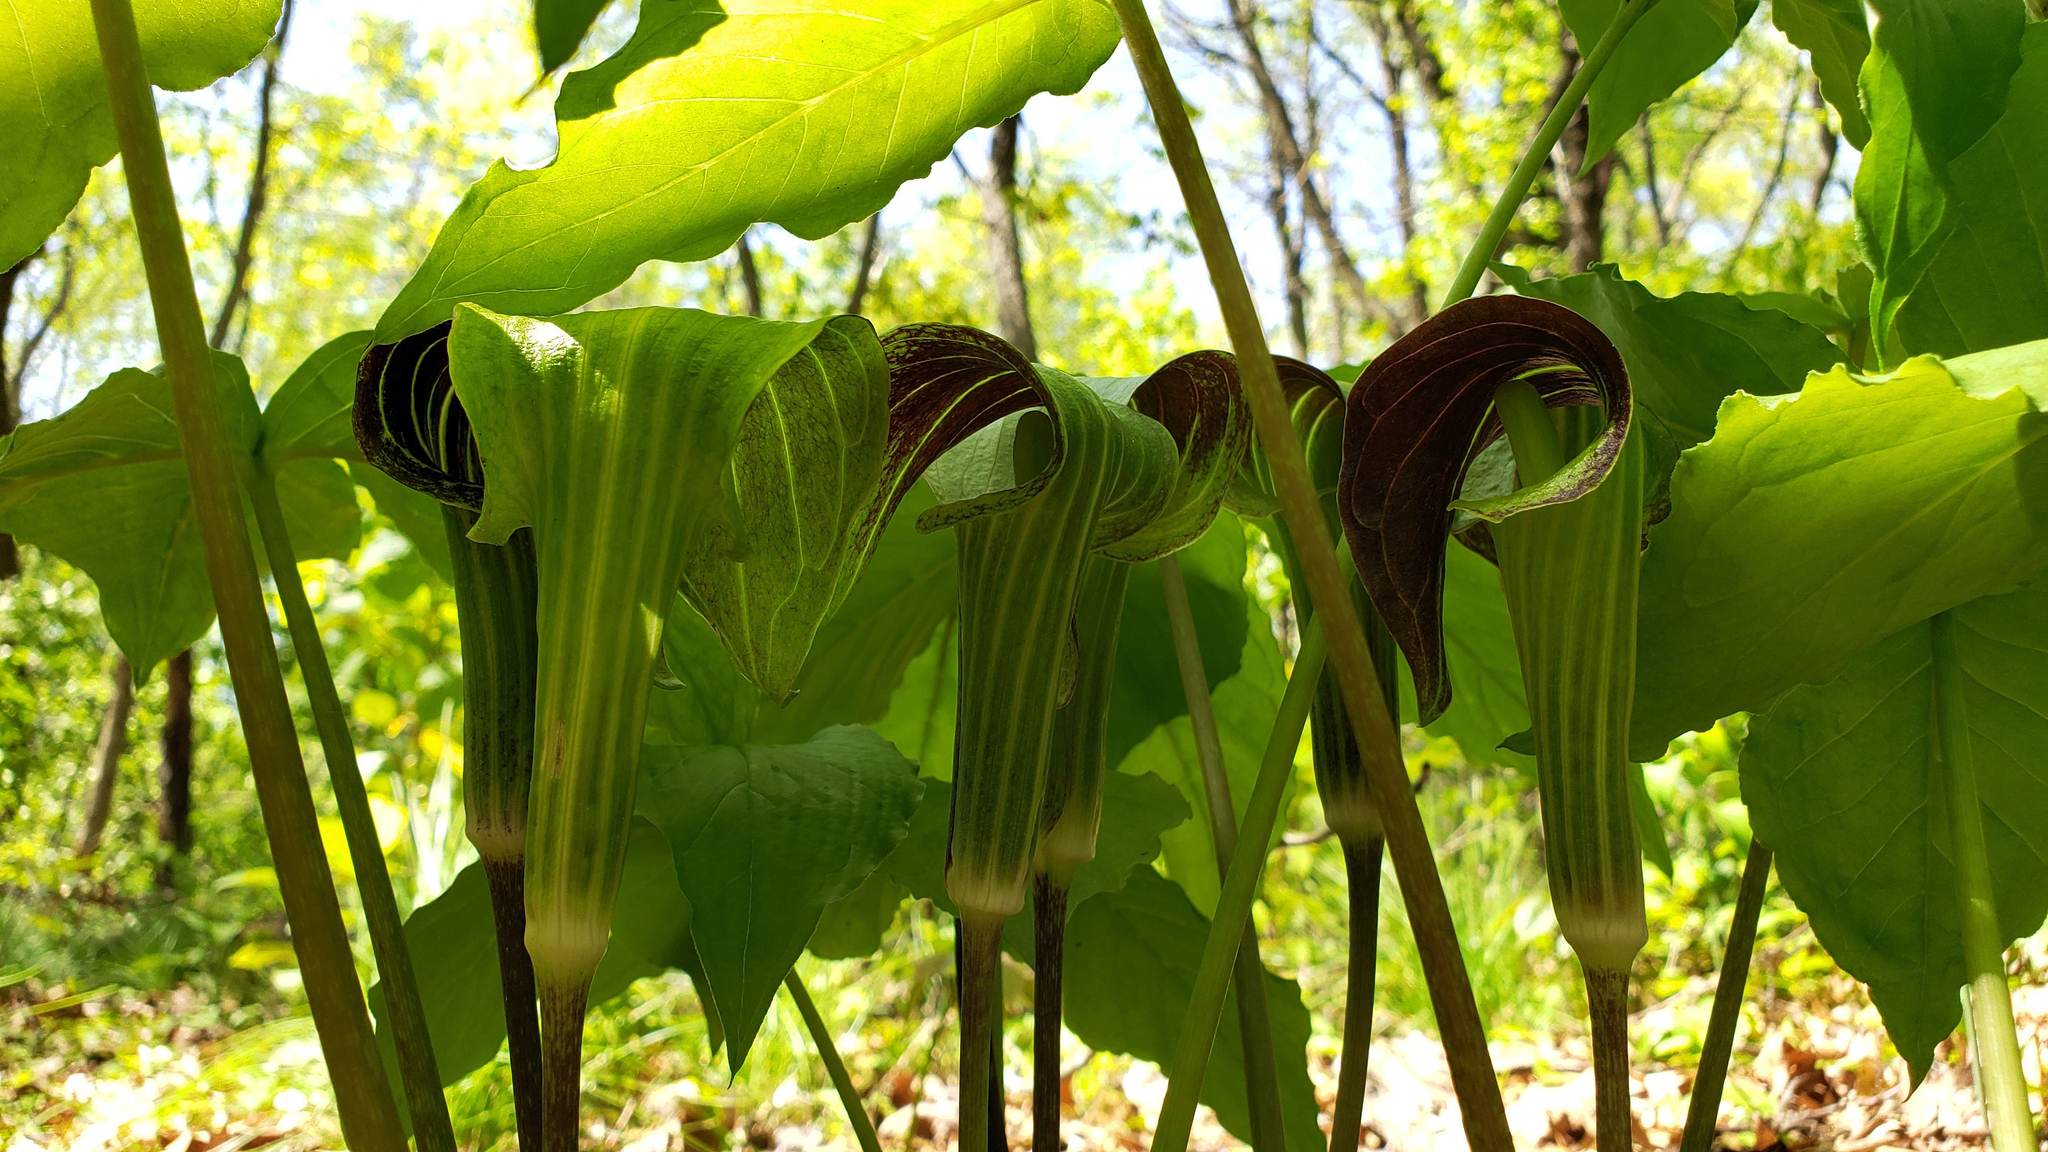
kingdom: Plantae
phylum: Tracheophyta
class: Liliopsida
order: Alismatales
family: Araceae
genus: Arisaema
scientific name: Arisaema triphyllum
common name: Jack-in-the-pulpit
